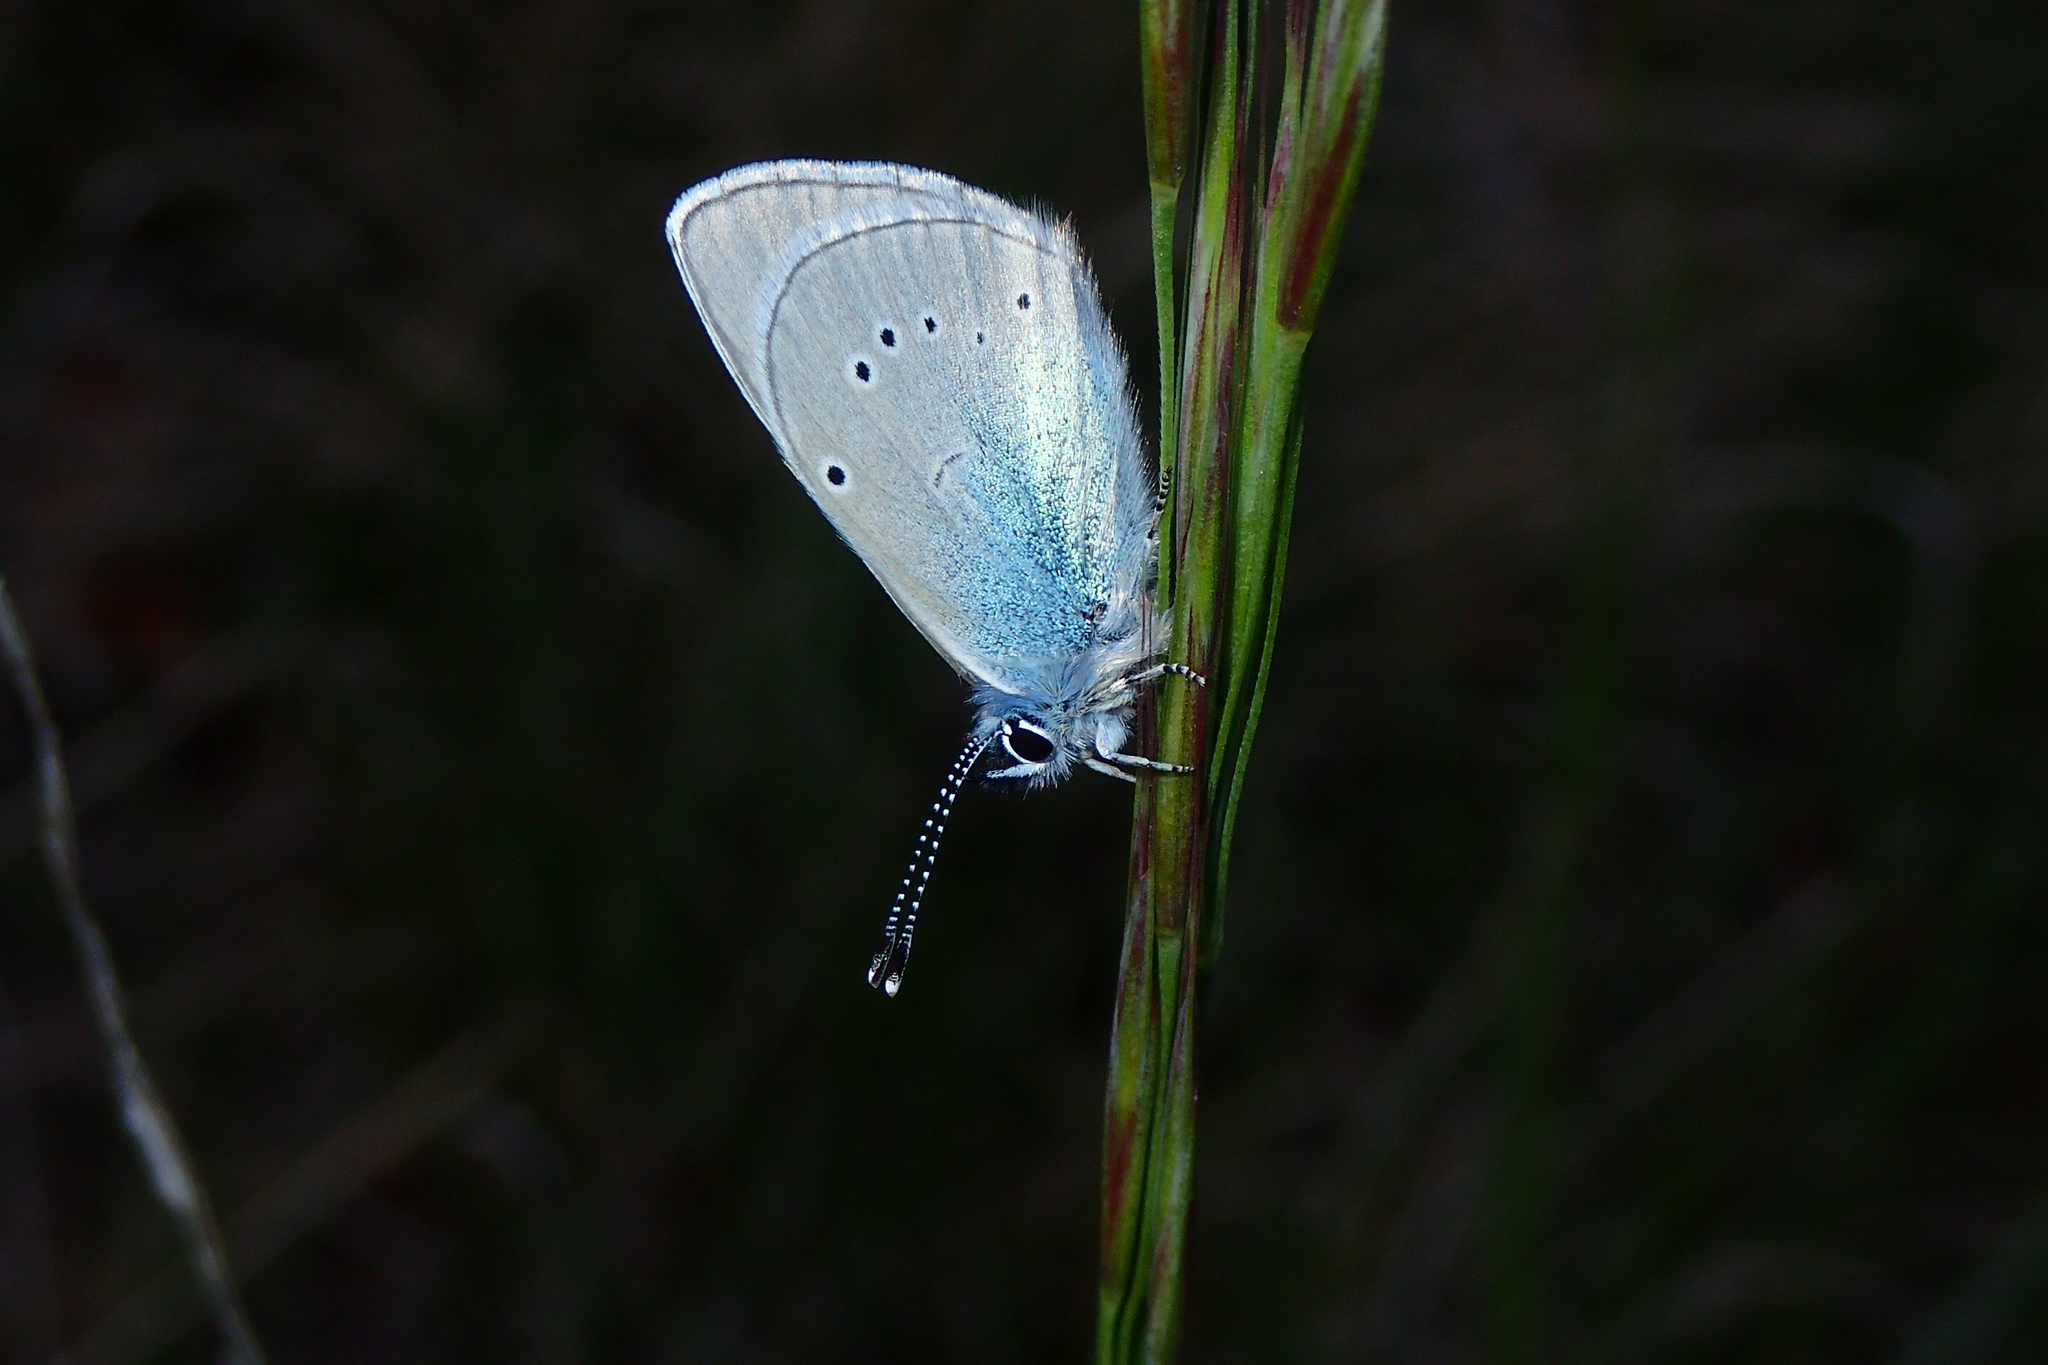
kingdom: Animalia
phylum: Arthropoda
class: Insecta
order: Lepidoptera
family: Lycaenidae
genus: Everes
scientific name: Everes sebrus
